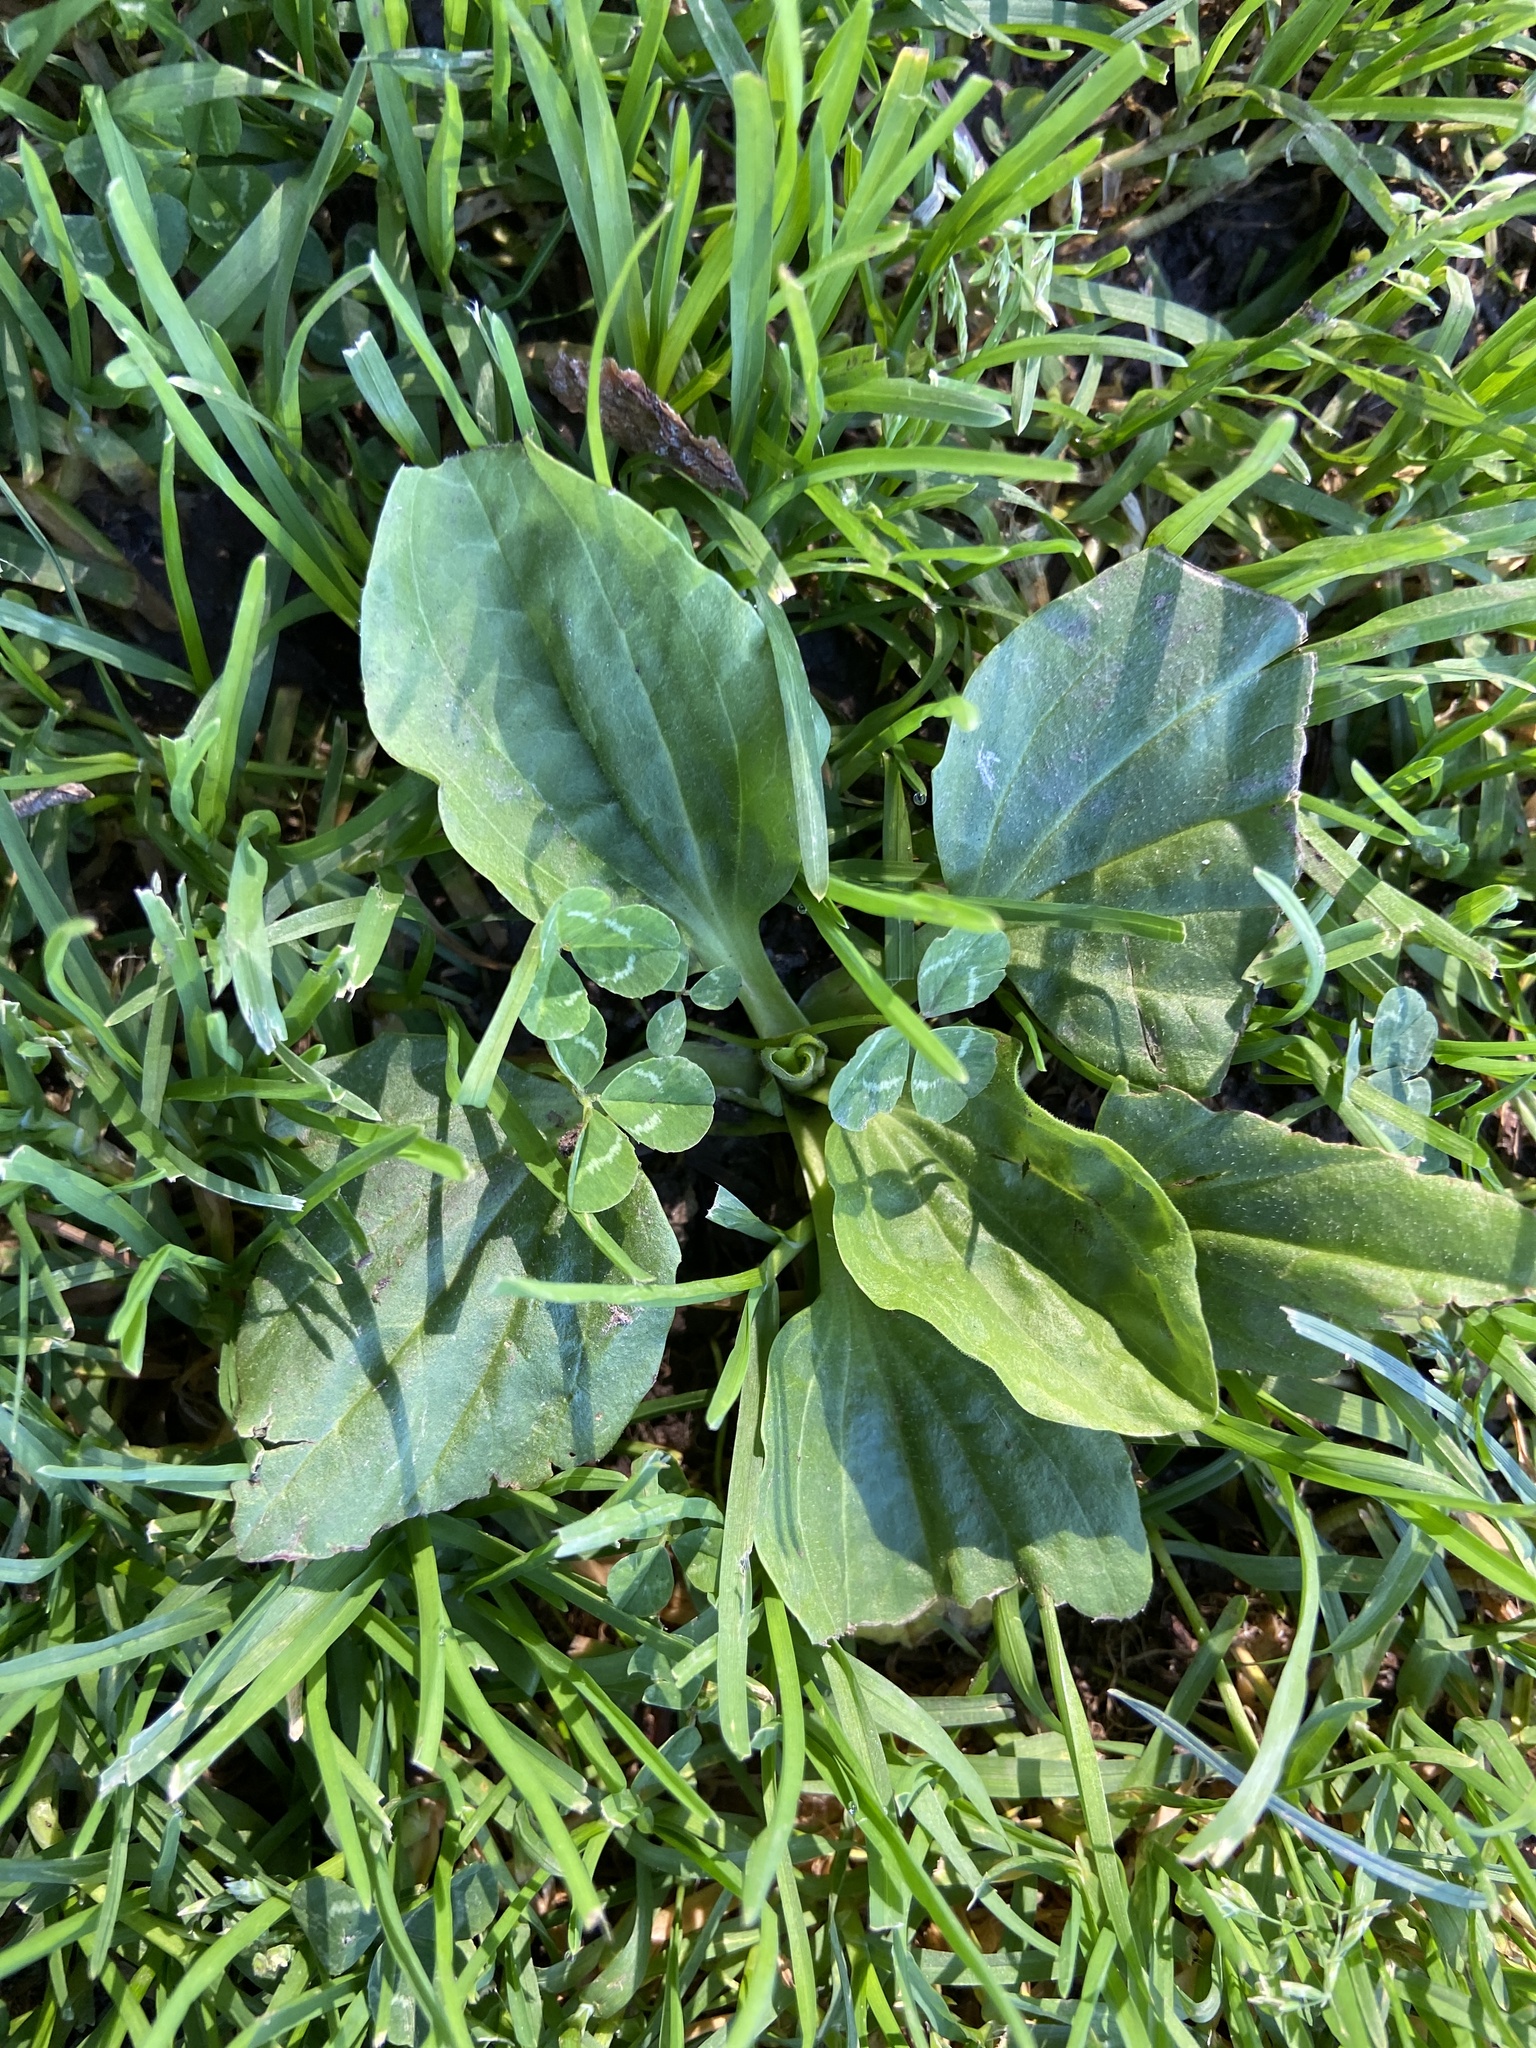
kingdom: Plantae
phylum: Tracheophyta
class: Magnoliopsida
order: Lamiales
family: Plantaginaceae
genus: Plantago
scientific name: Plantago major
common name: Common plantain
